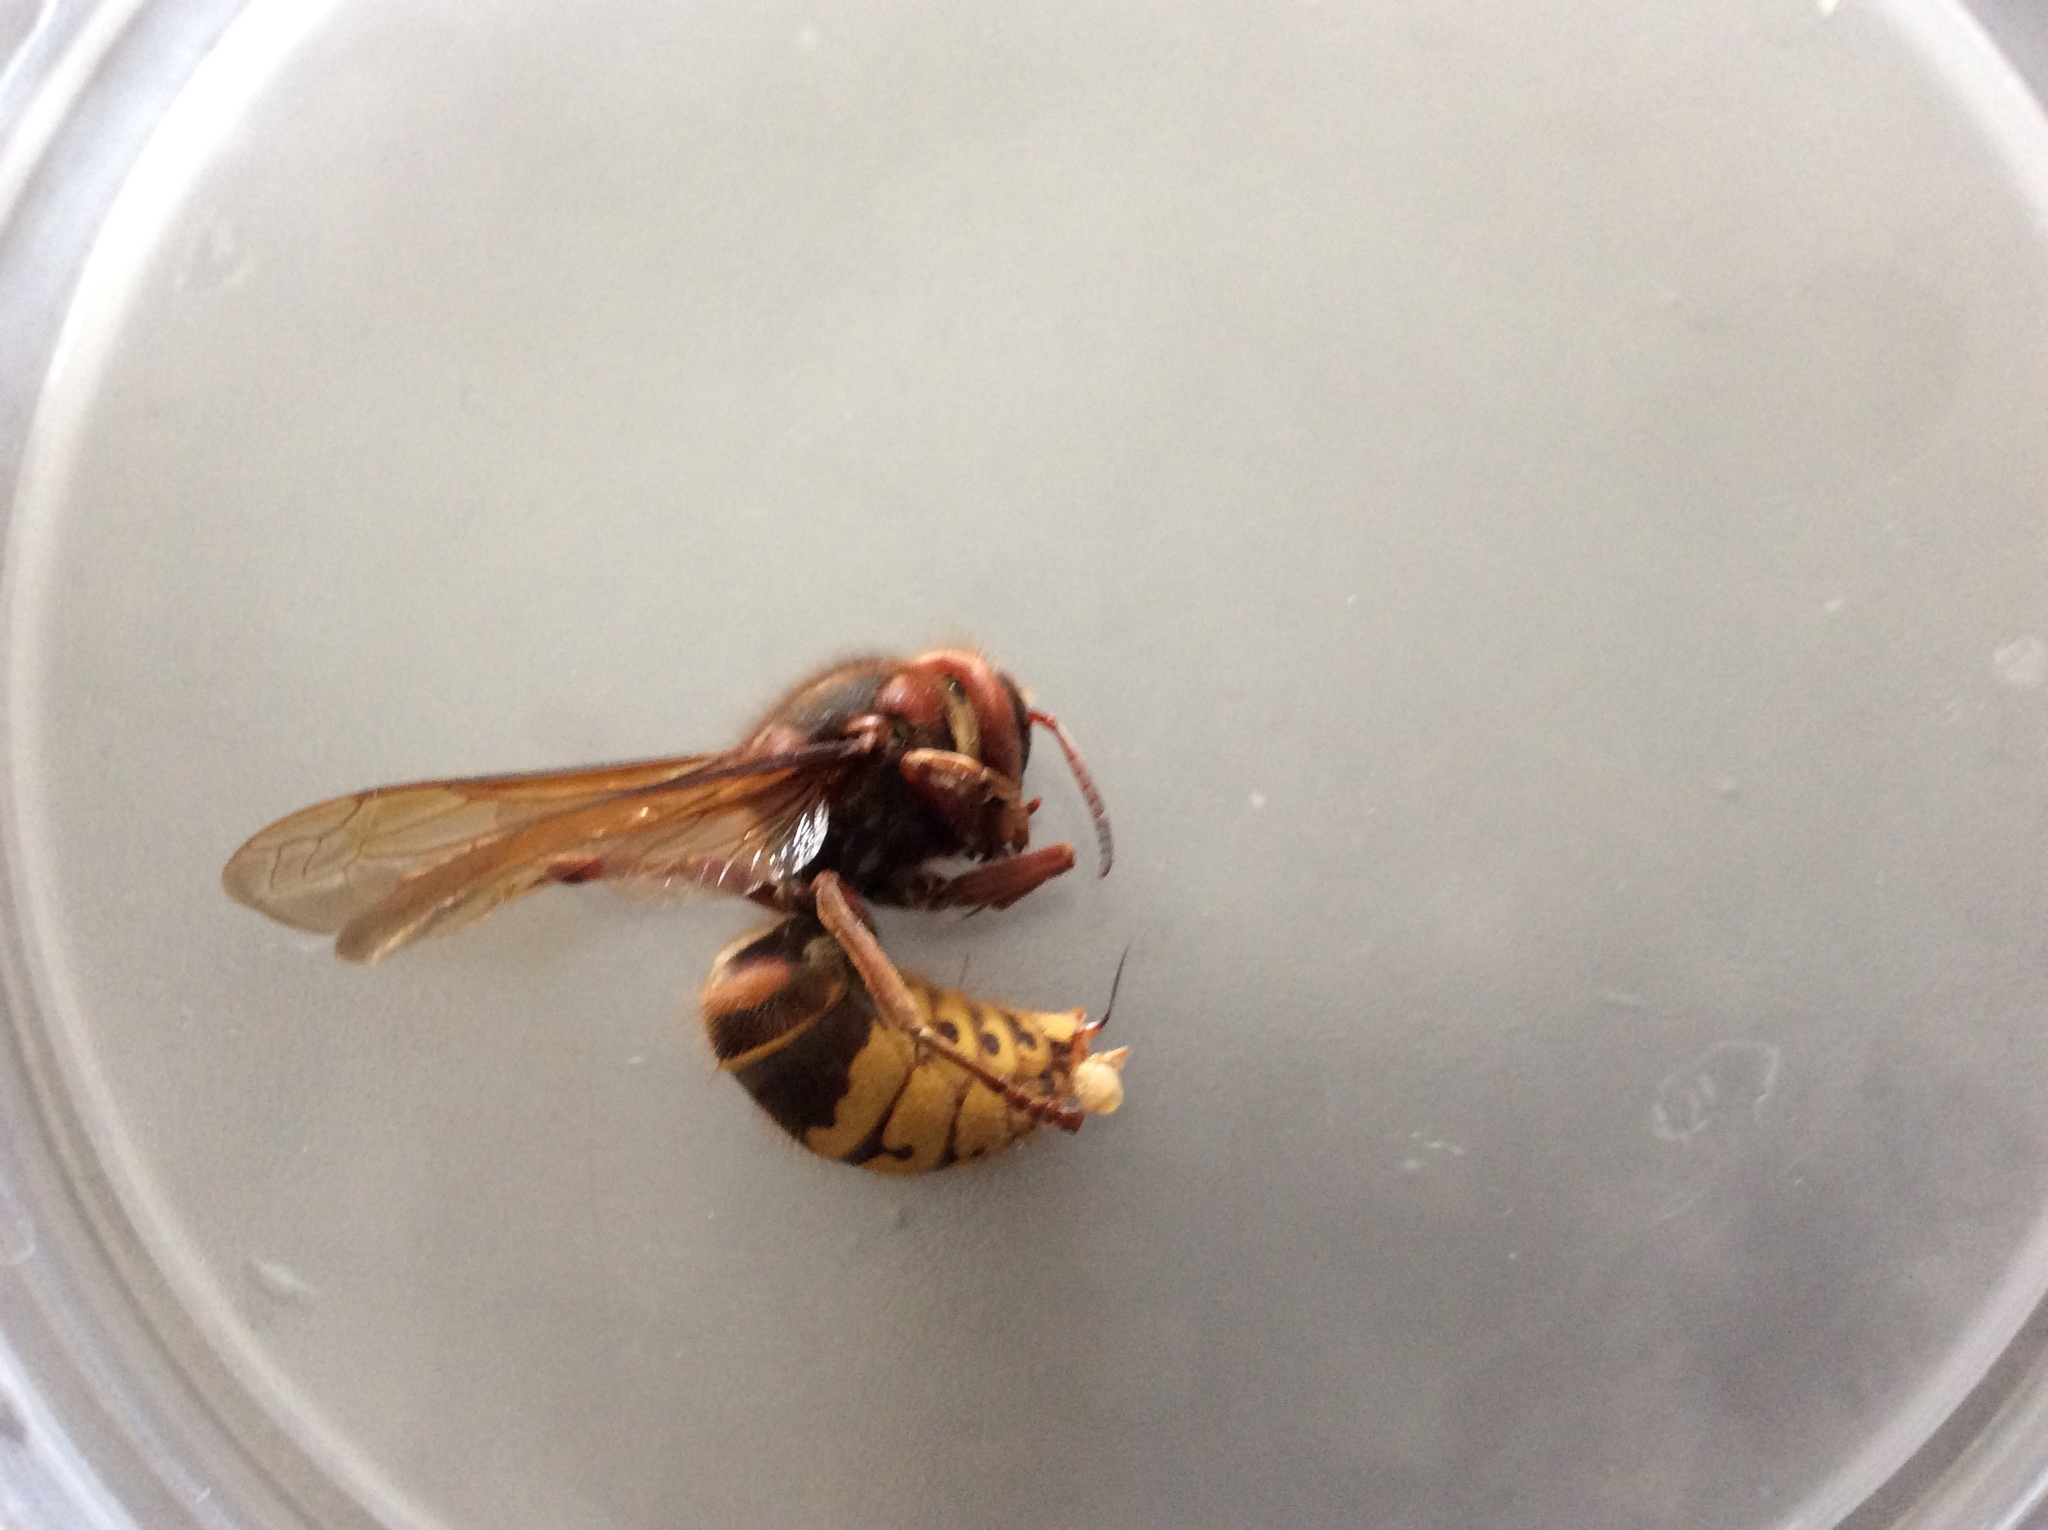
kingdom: Animalia
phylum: Arthropoda
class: Insecta
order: Hymenoptera
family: Vespidae
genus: Vespa
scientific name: Vespa crabro
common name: Hornet
